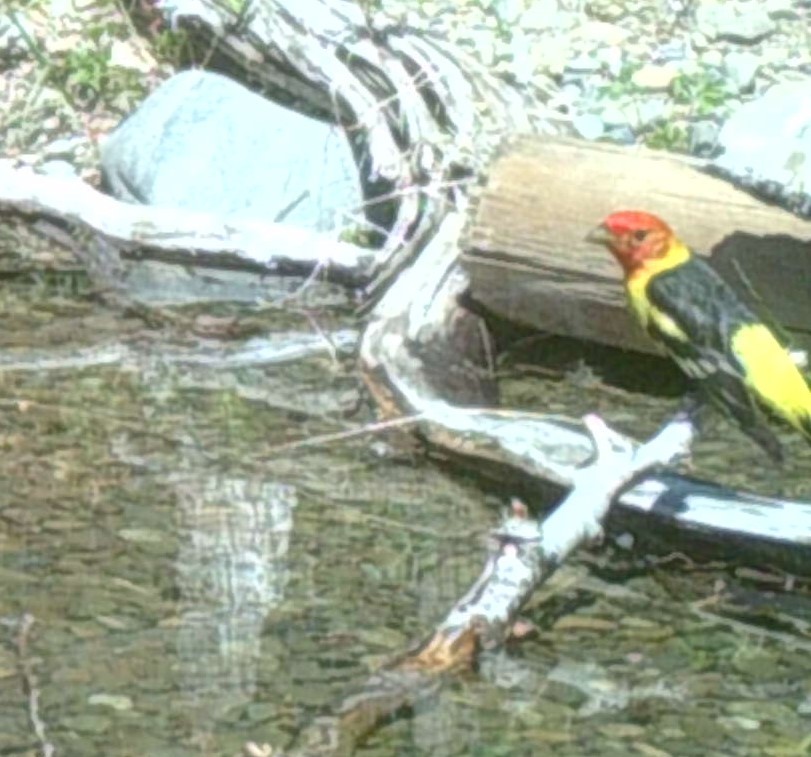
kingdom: Animalia
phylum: Chordata
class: Aves
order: Passeriformes
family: Cardinalidae
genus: Piranga
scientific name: Piranga ludoviciana
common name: Western tanager
